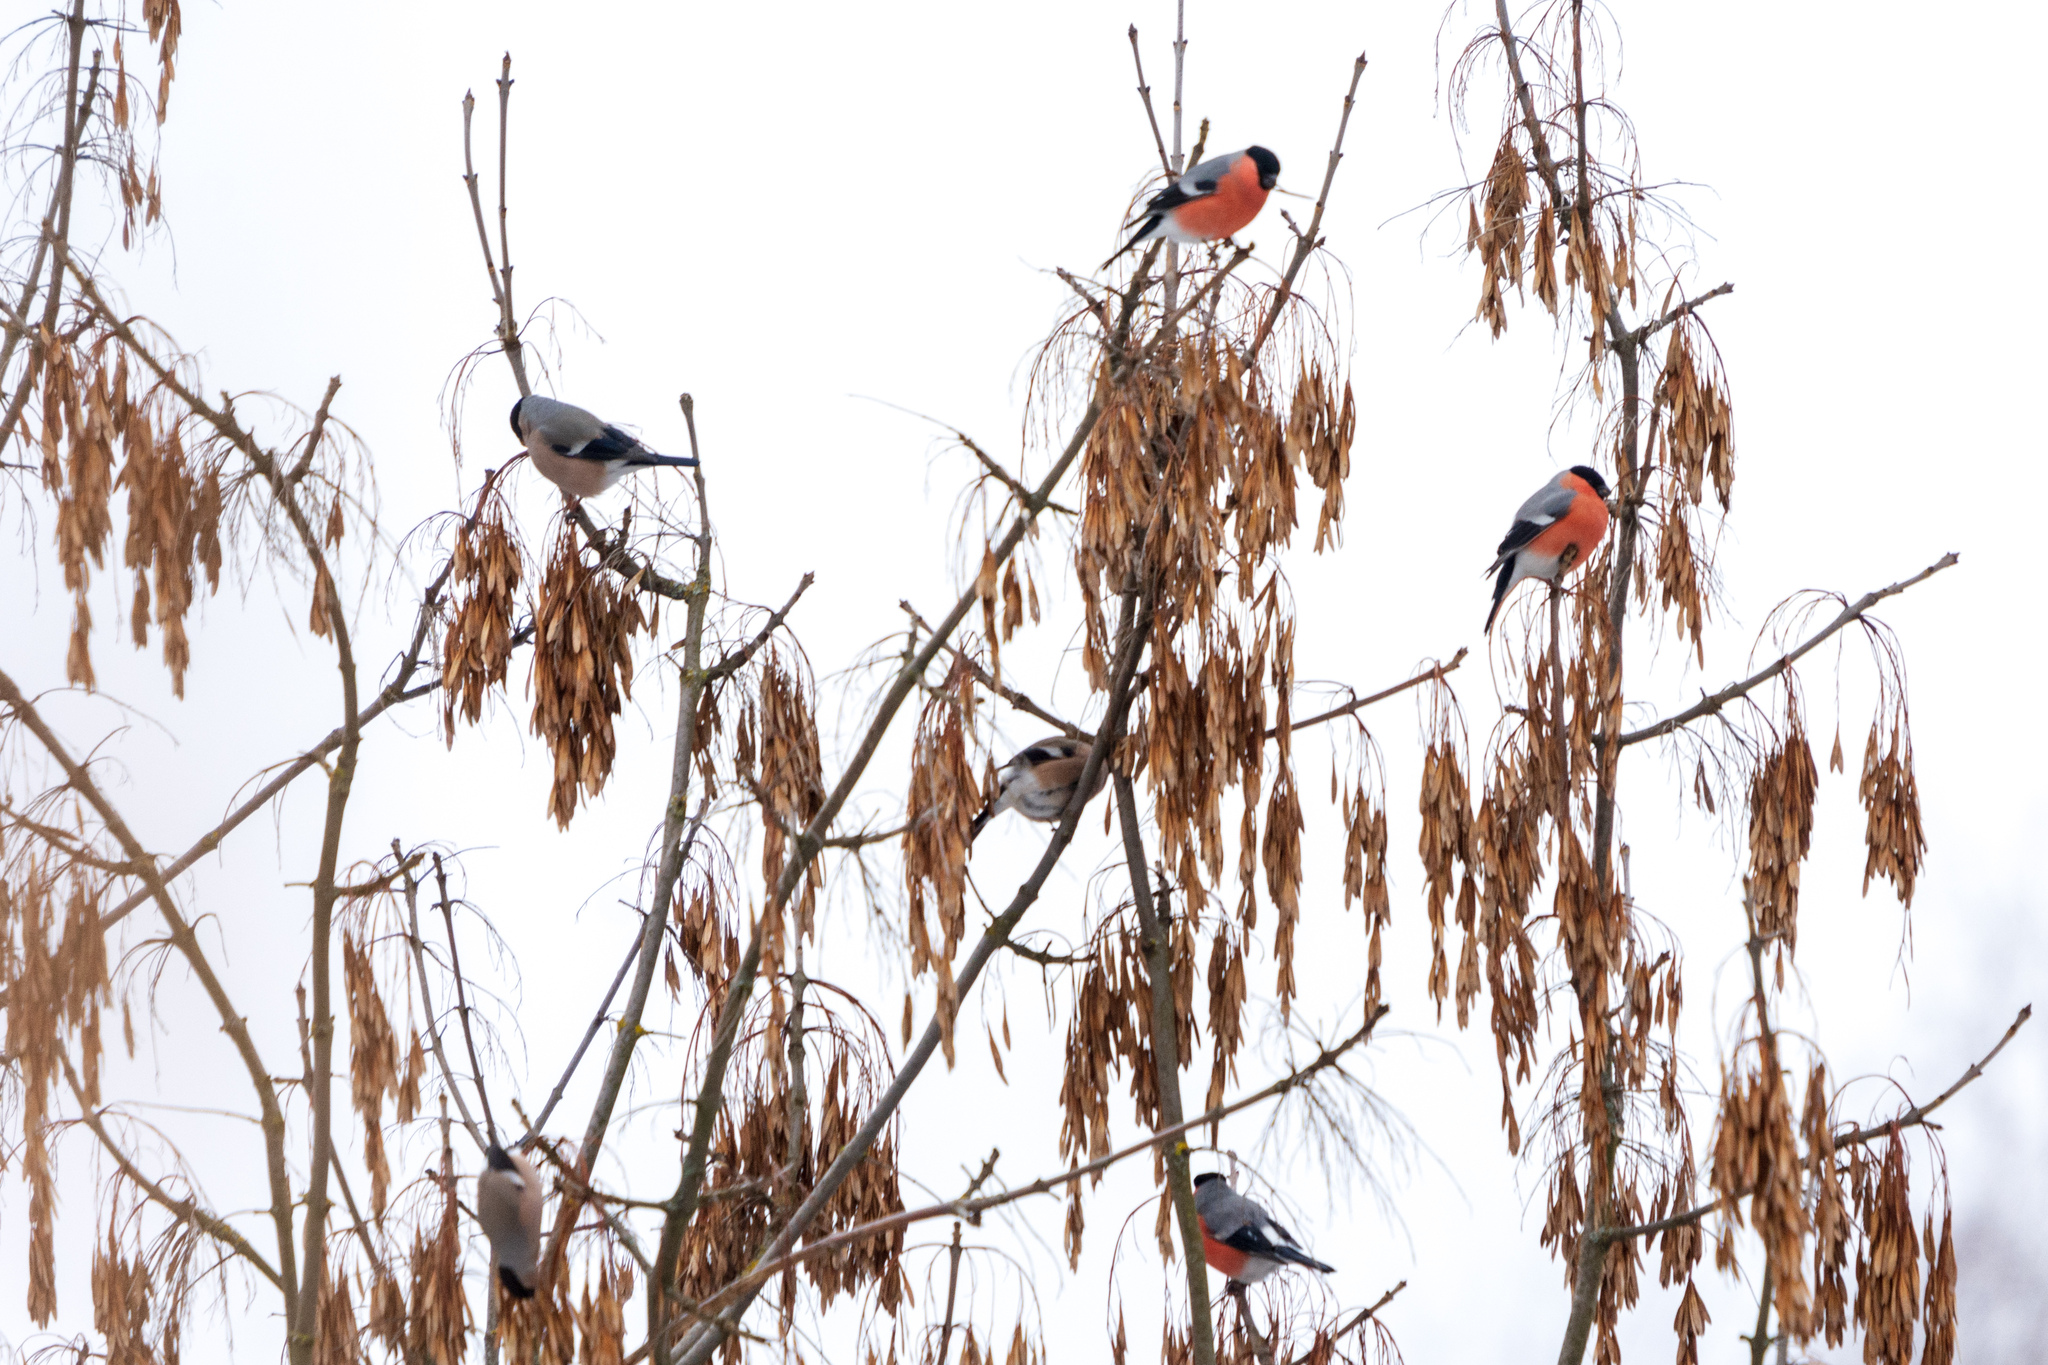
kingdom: Animalia
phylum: Chordata
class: Aves
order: Passeriformes
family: Fringillidae
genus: Pyrrhula
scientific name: Pyrrhula pyrrhula
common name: Eurasian bullfinch
